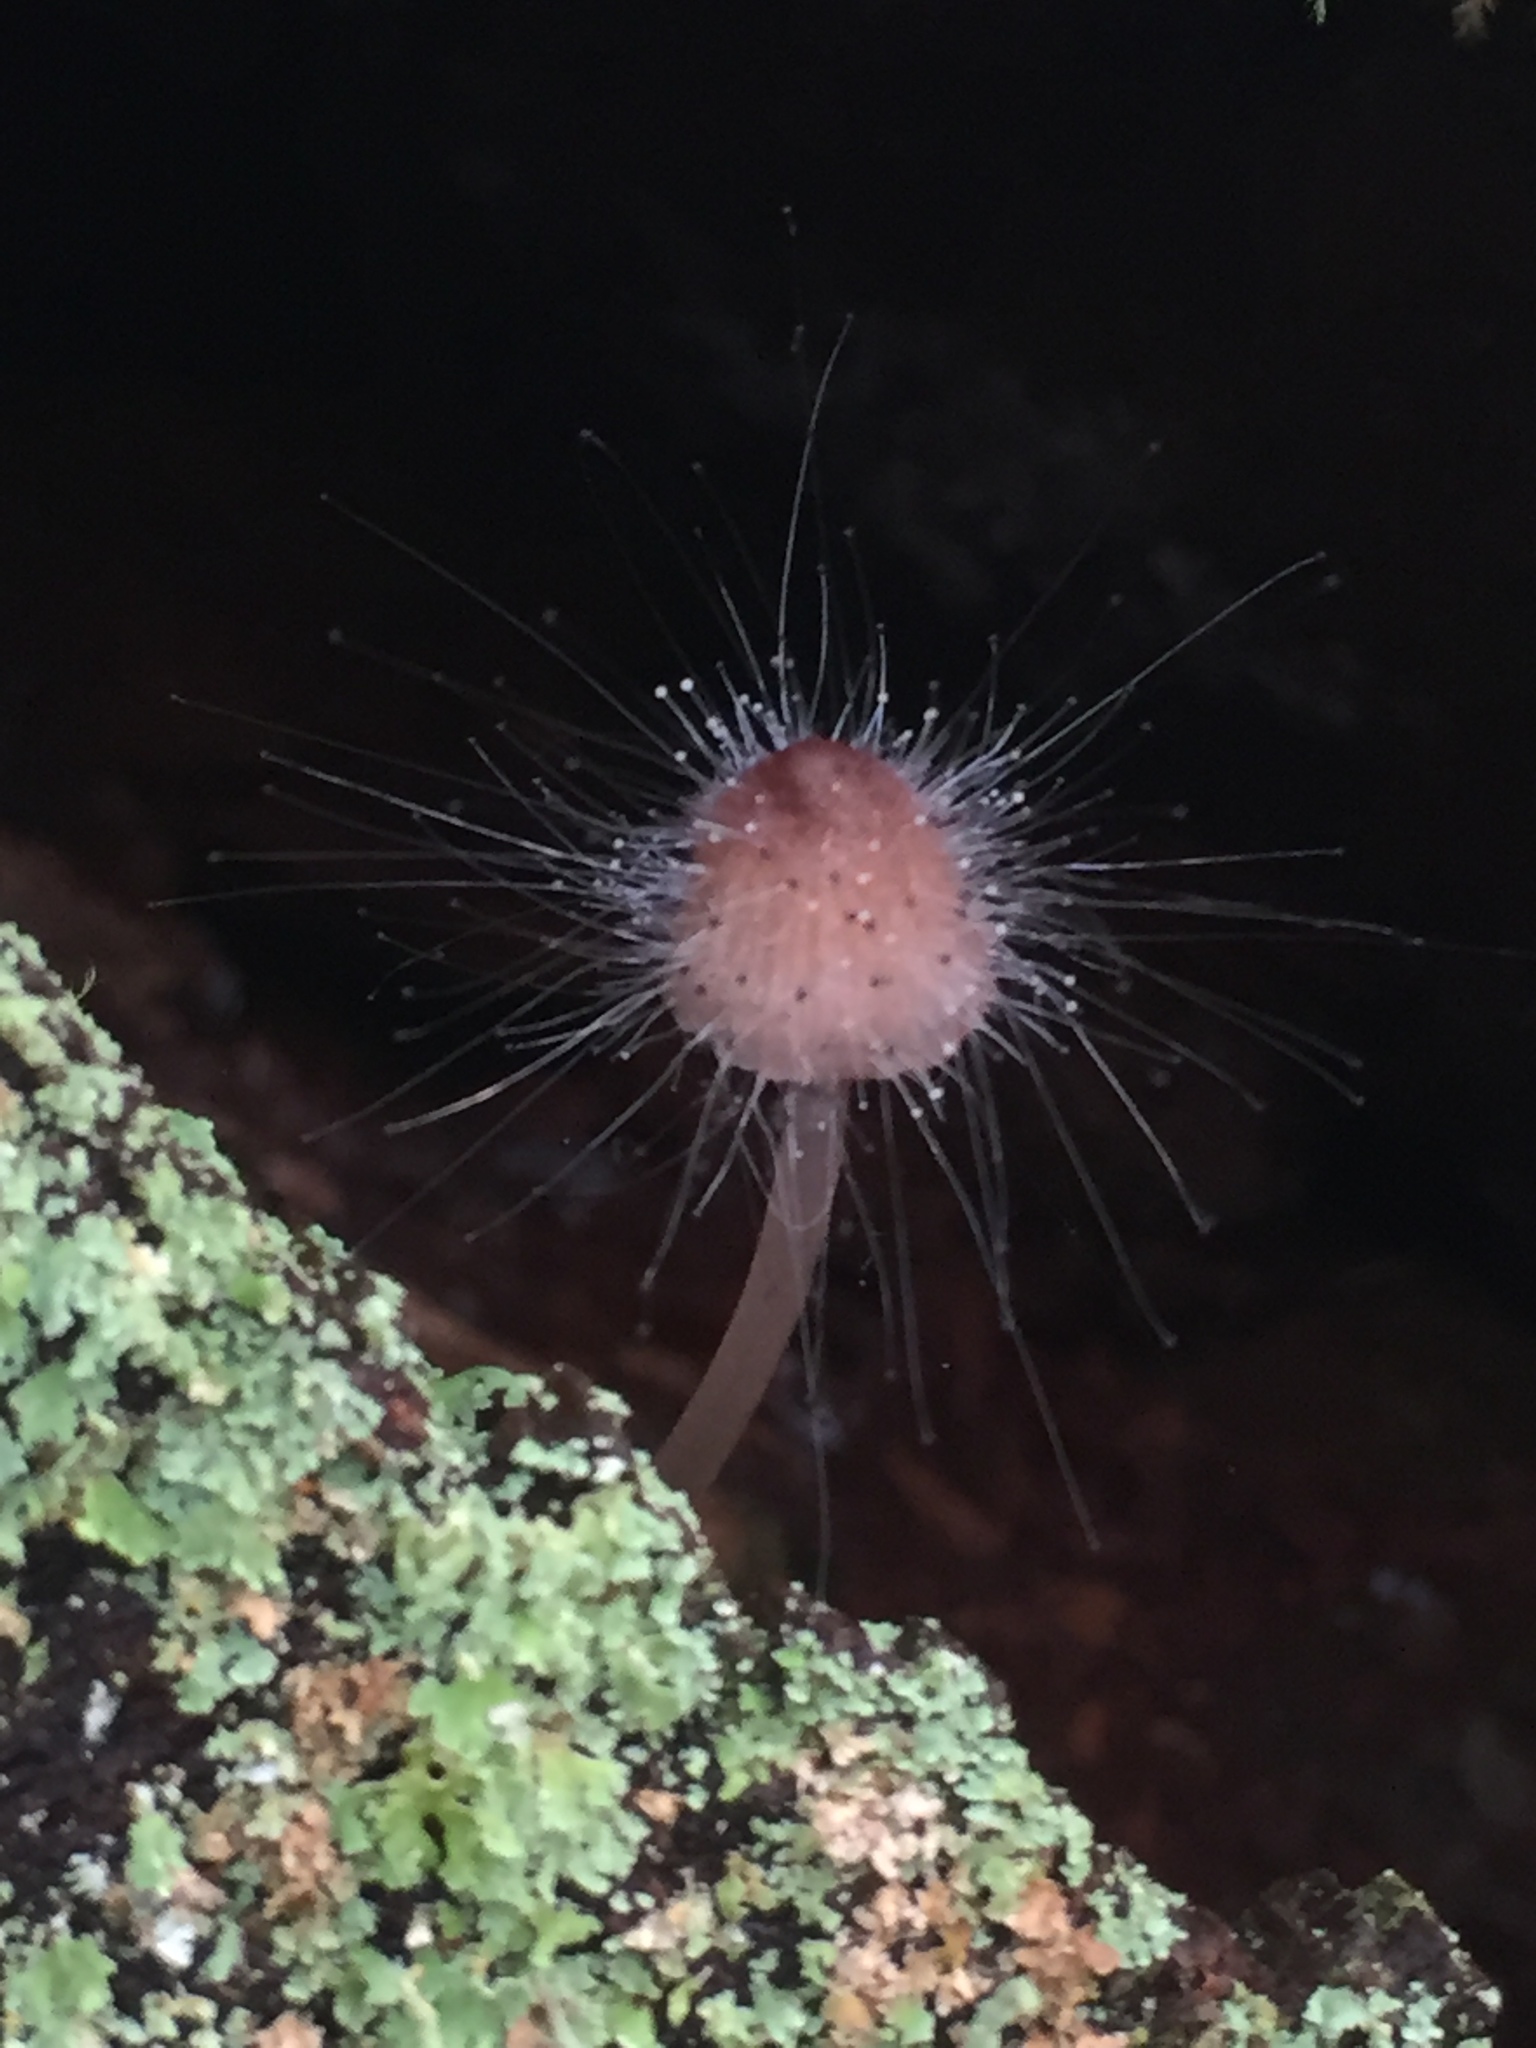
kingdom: Fungi
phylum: Mucoromycota
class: Mucoromycetes
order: Mucorales
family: Phycomycetaceae
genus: Spinellus
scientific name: Spinellus fusiger
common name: Bonnet mould
